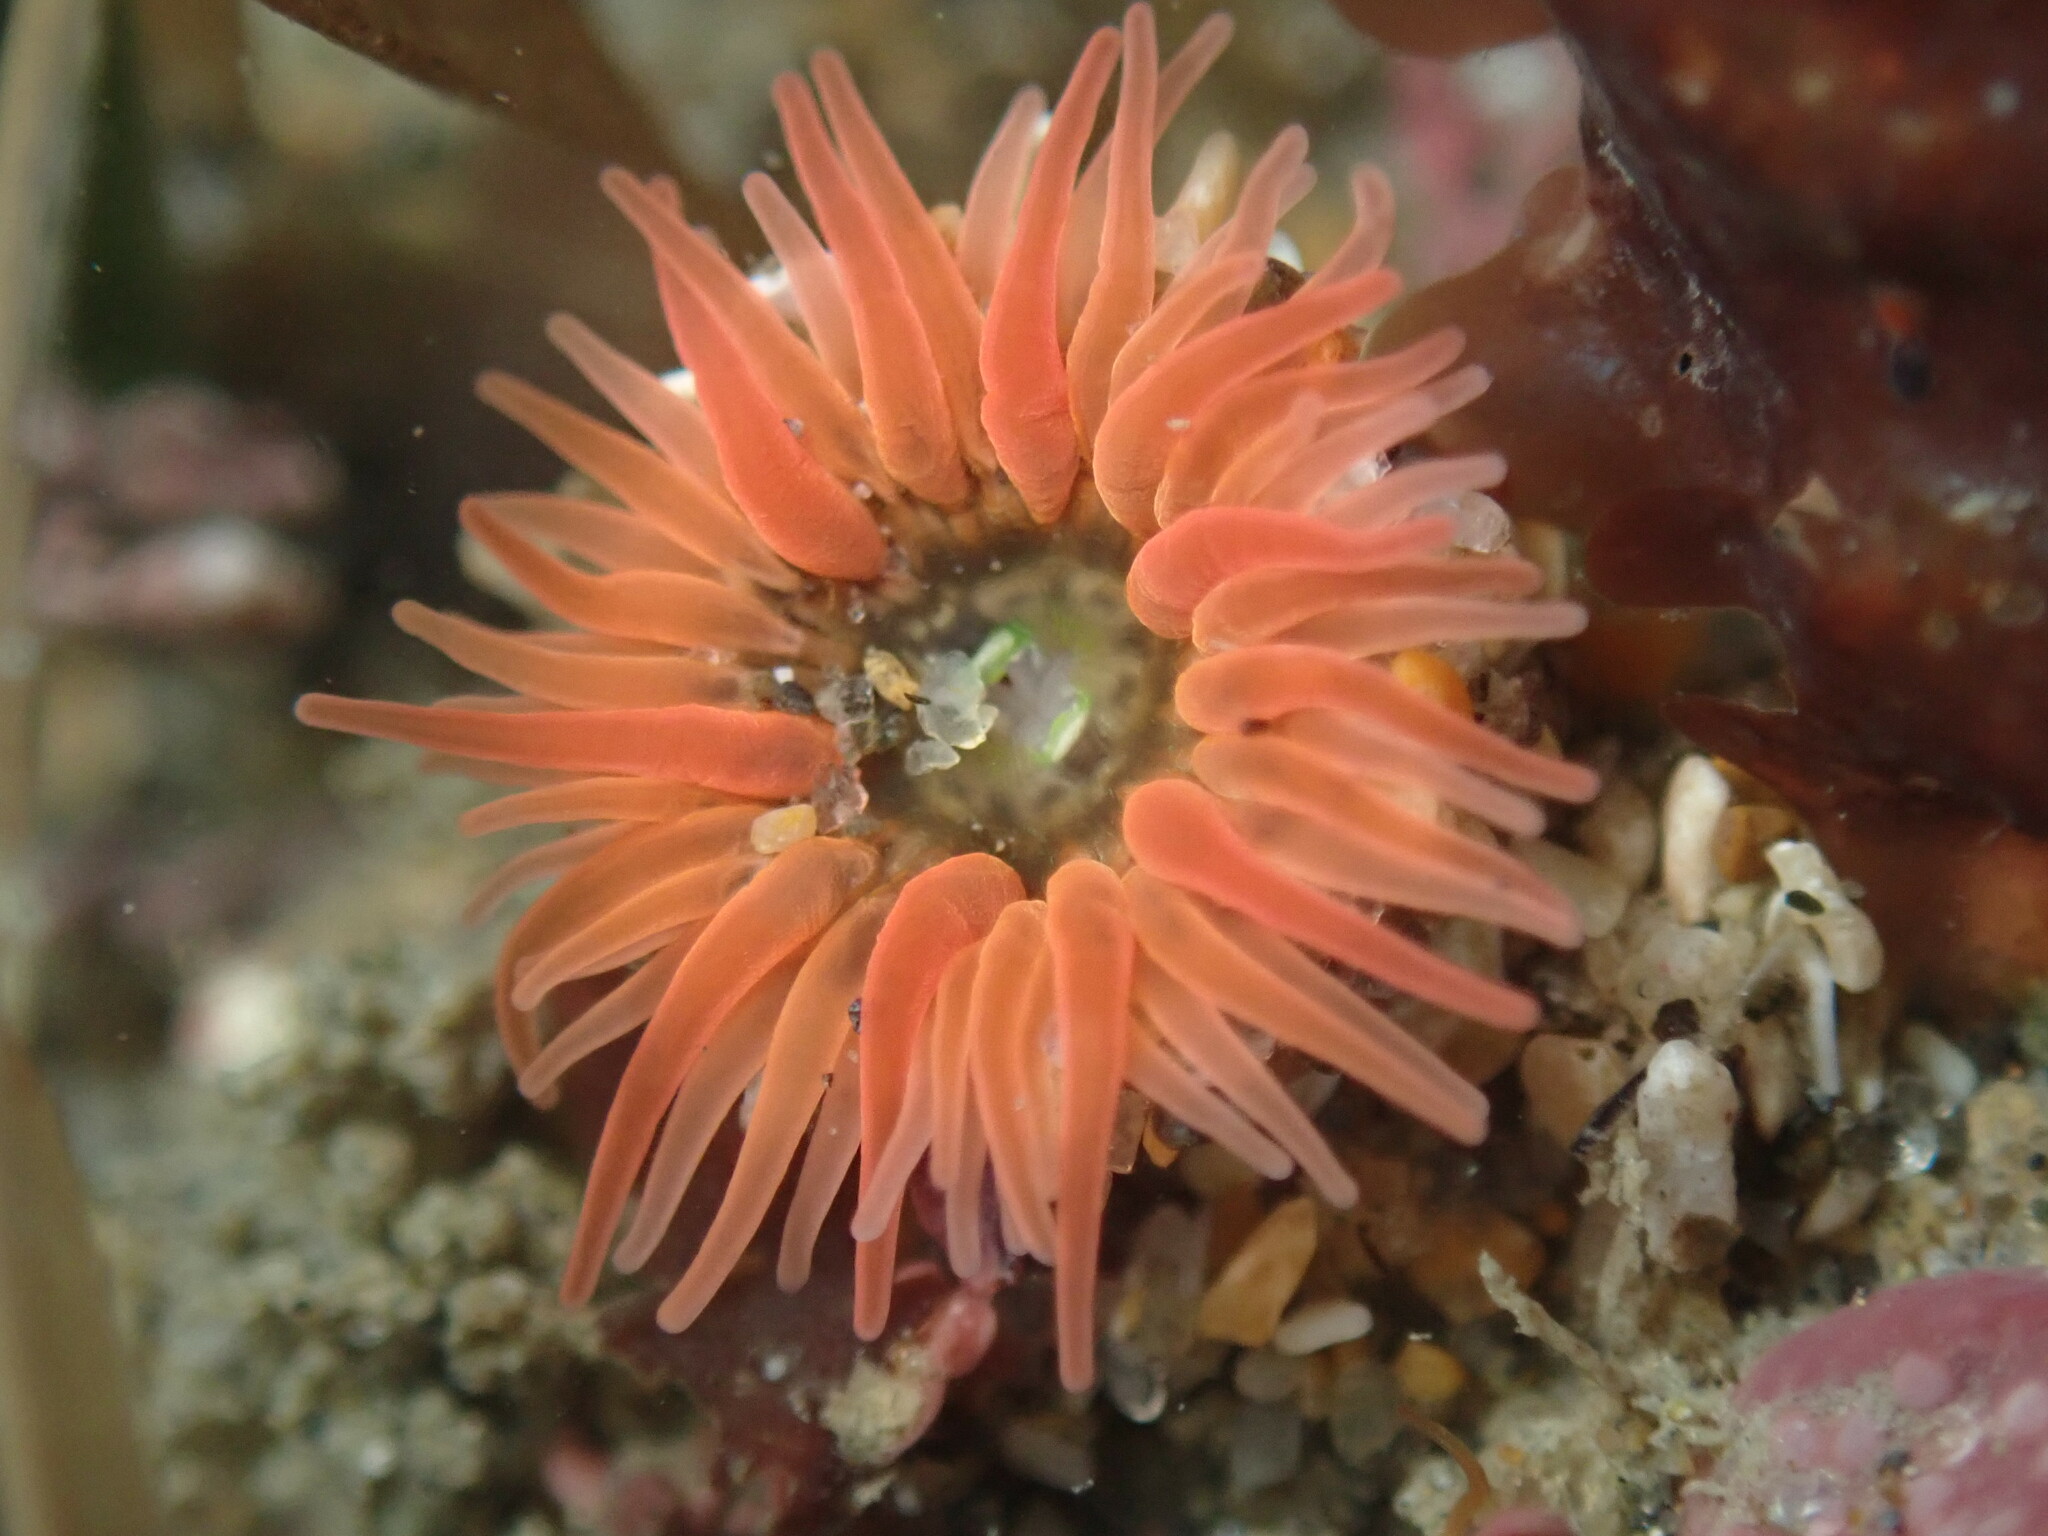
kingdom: Animalia
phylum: Cnidaria
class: Anthozoa
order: Actiniaria
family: Actiniidae
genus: Anthopleura
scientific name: Anthopleura artemisia
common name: Buried sea anemone
